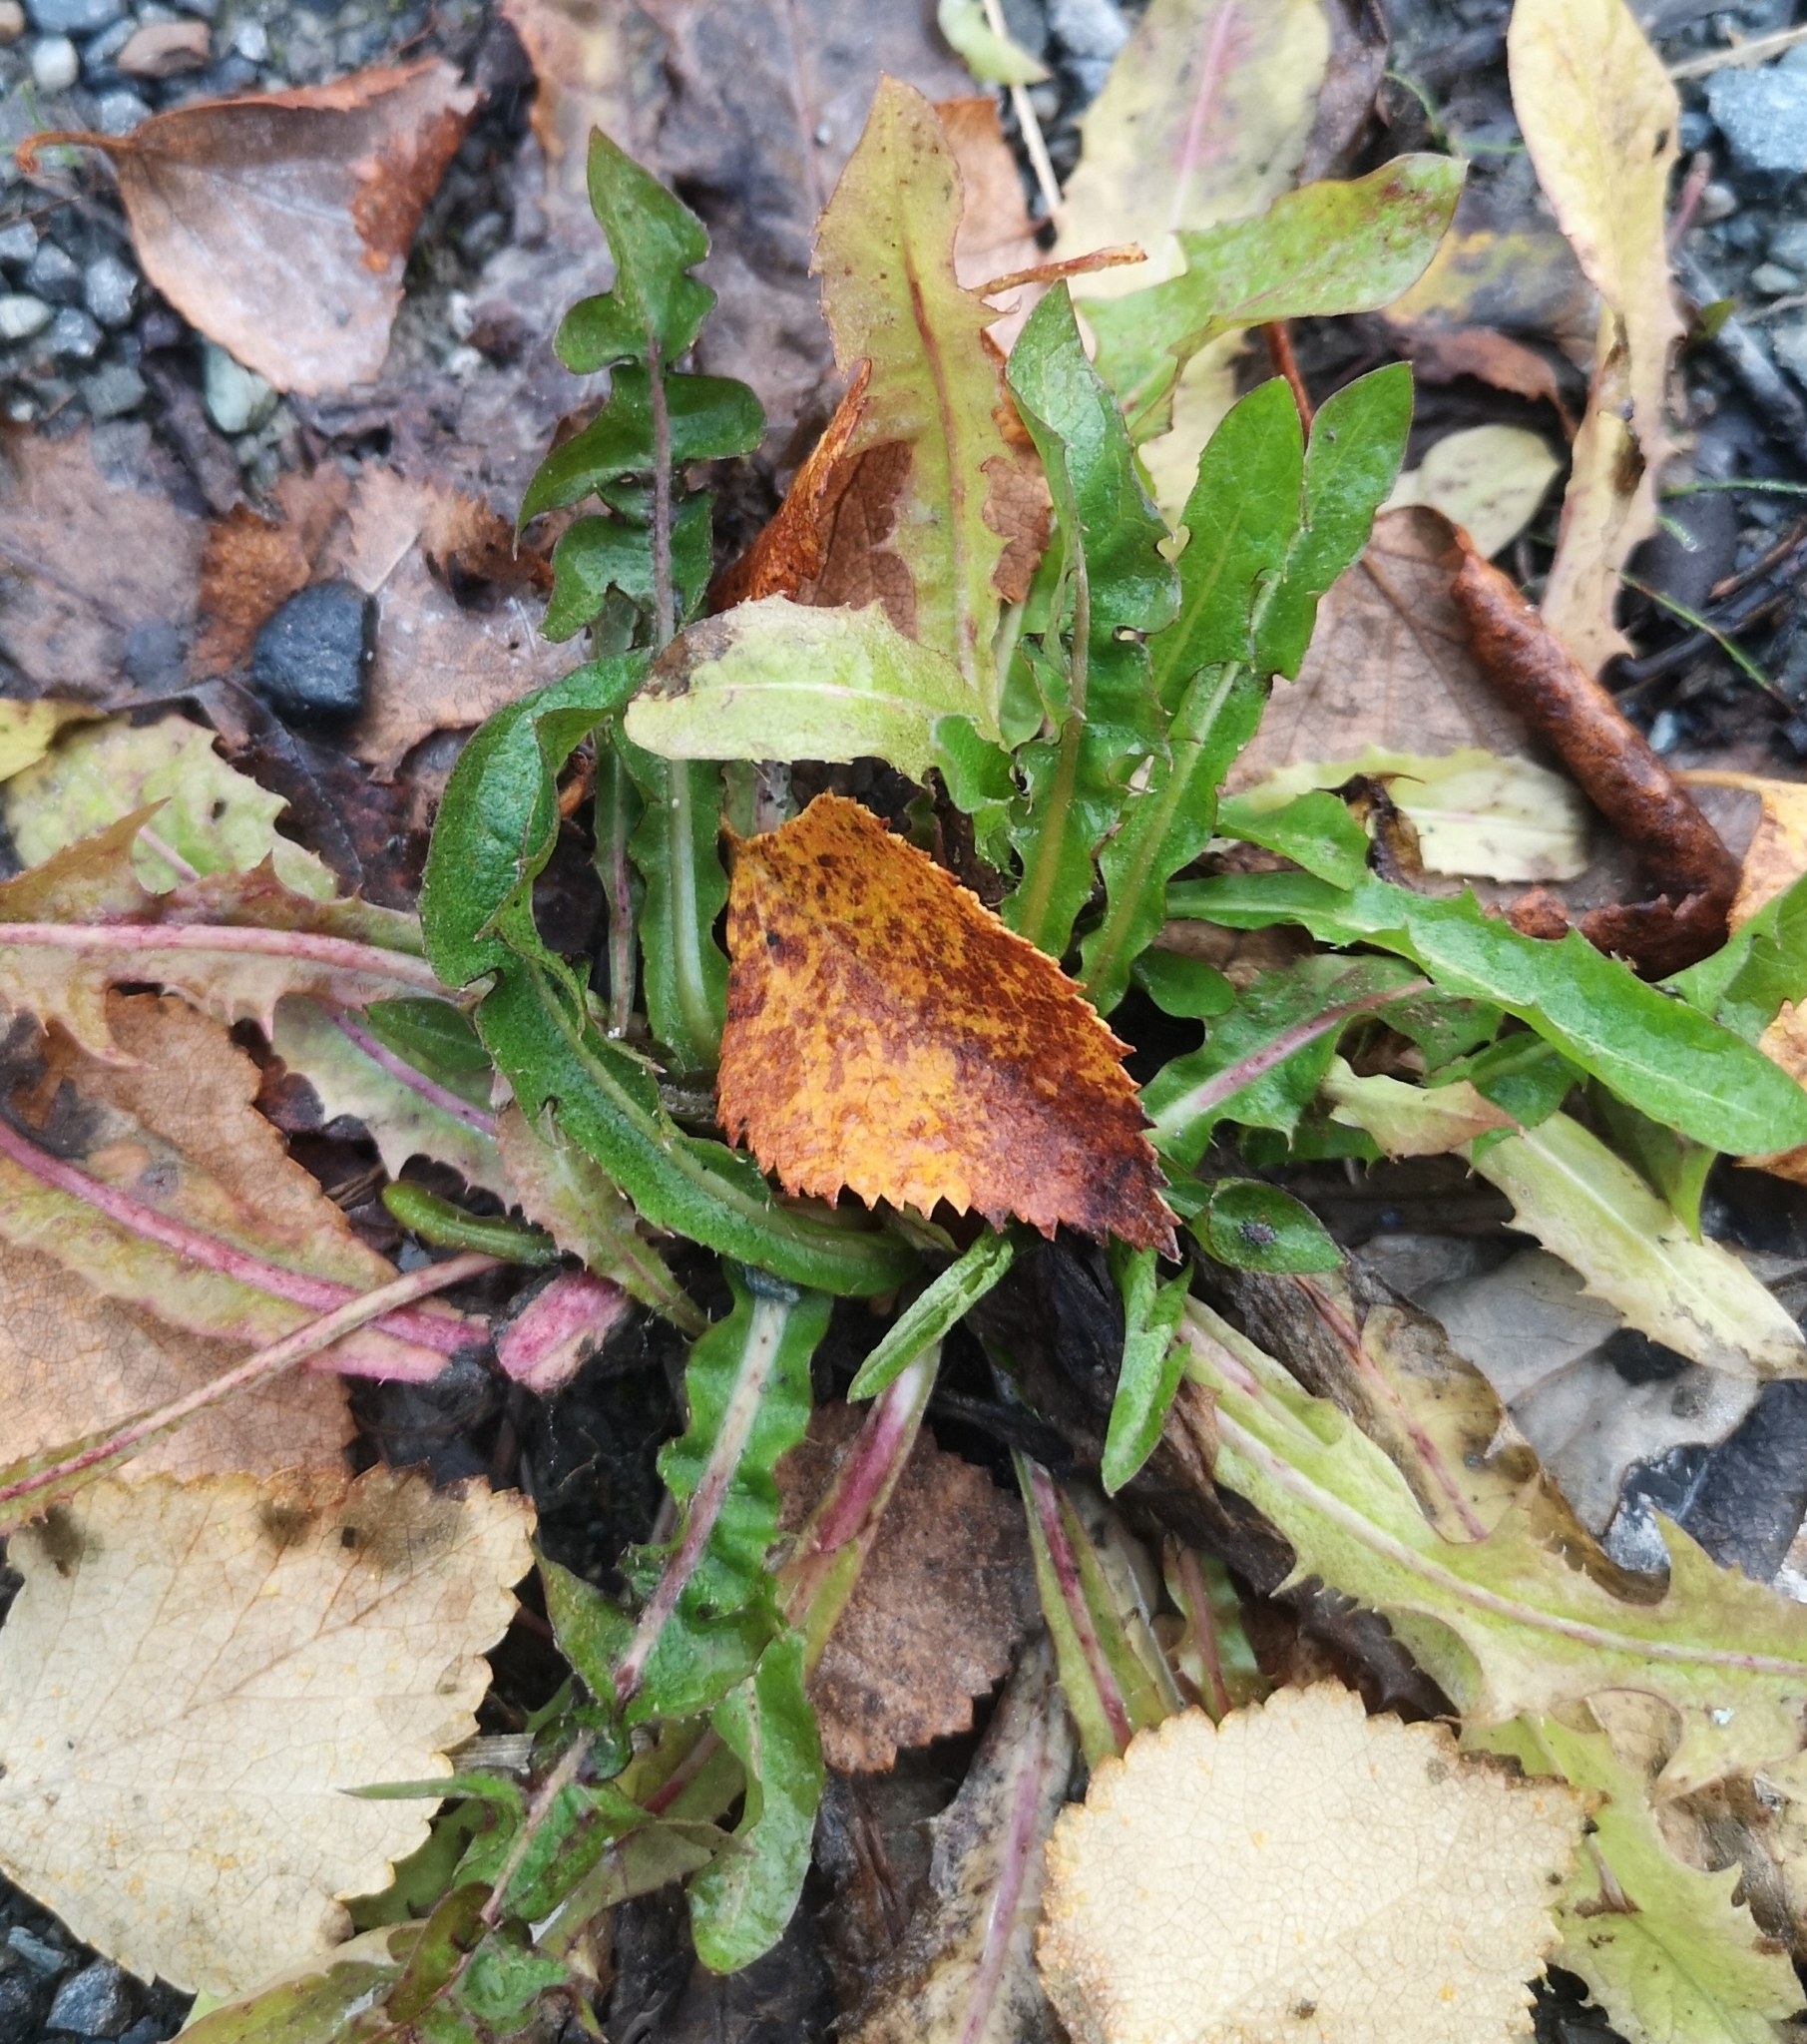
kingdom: Plantae
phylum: Tracheophyta
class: Magnoliopsida
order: Asterales
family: Asteraceae
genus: Taraxacum
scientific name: Taraxacum officinale
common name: Common dandelion
